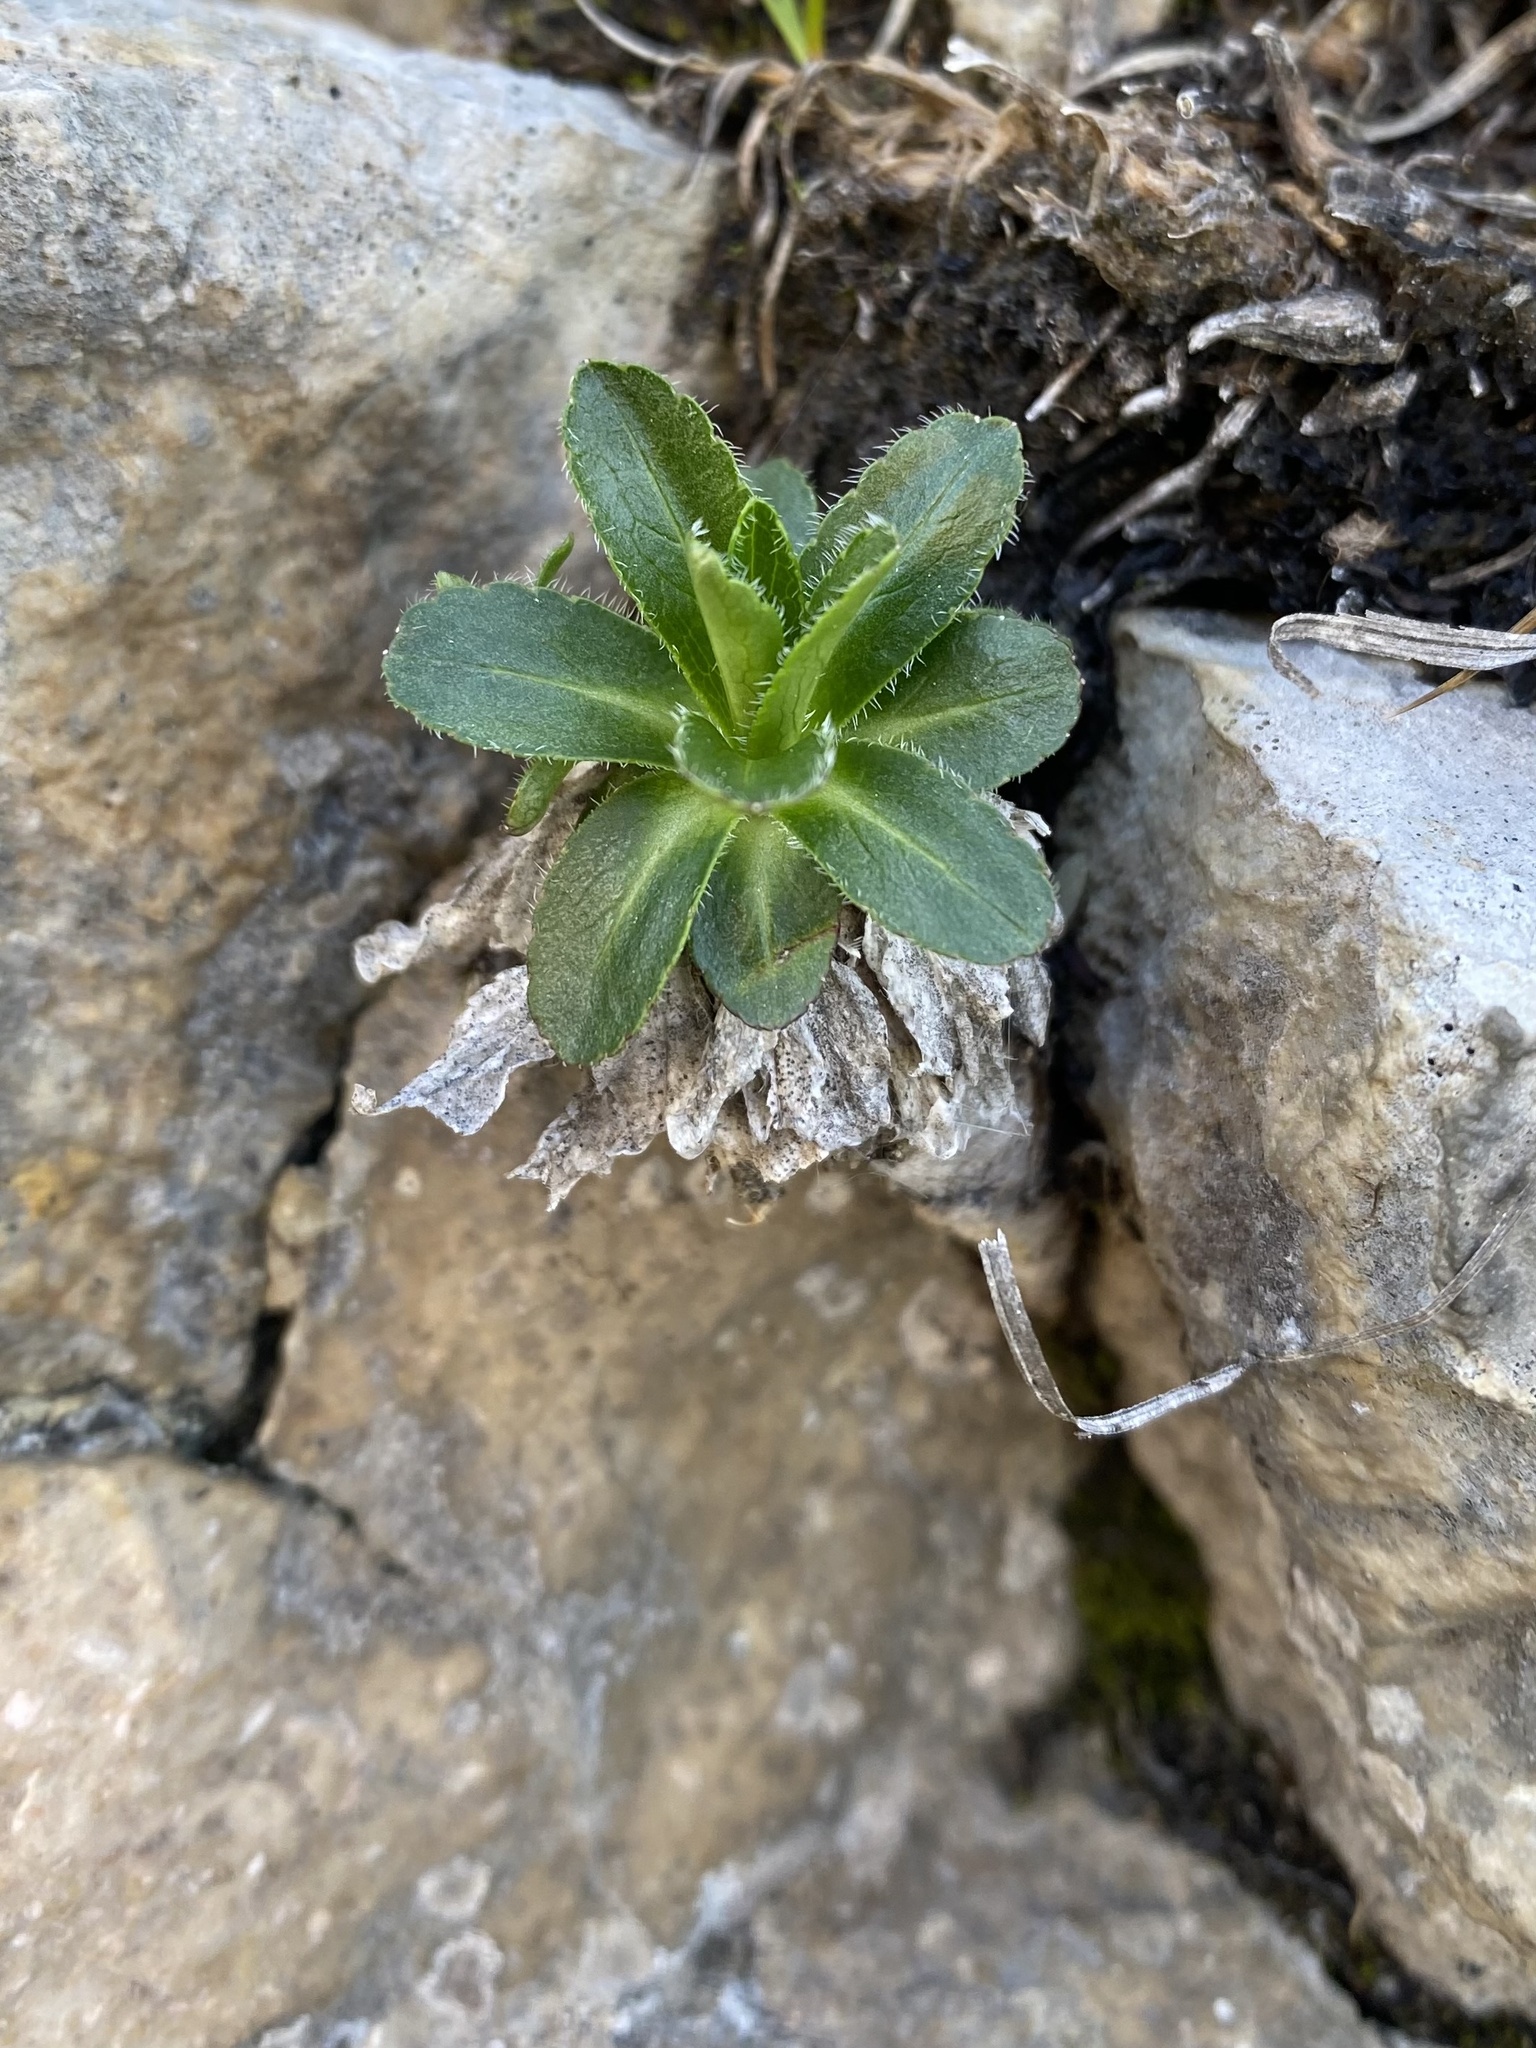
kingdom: Plantae
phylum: Tracheophyta
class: Magnoliopsida
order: Asterales
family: Campanulaceae
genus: Campanula
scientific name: Campanula ciliata
